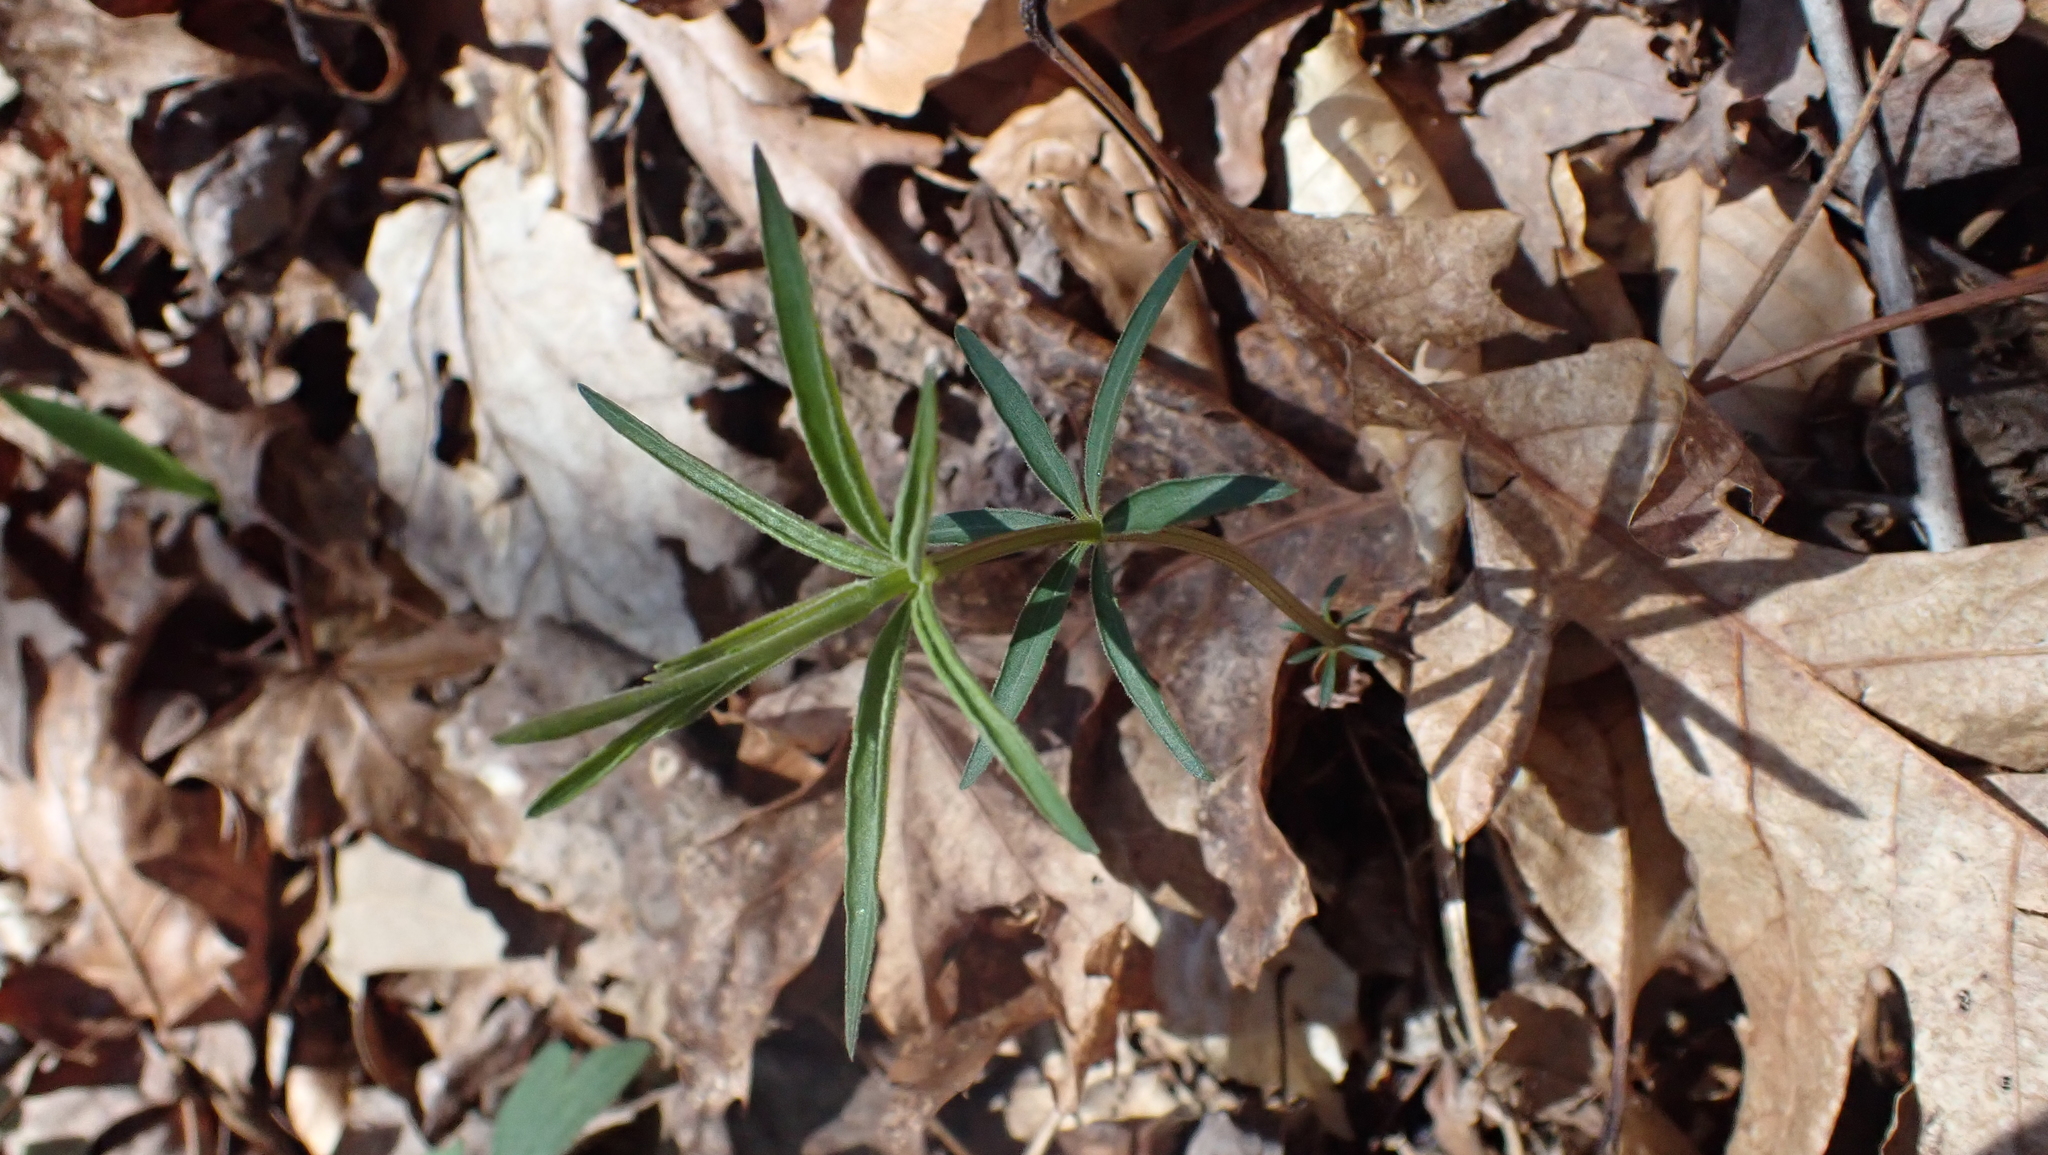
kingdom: Plantae
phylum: Tracheophyta
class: Magnoliopsida
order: Asterales
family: Asteraceae
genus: Coreopsis
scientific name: Coreopsis major
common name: Forest tickseed
